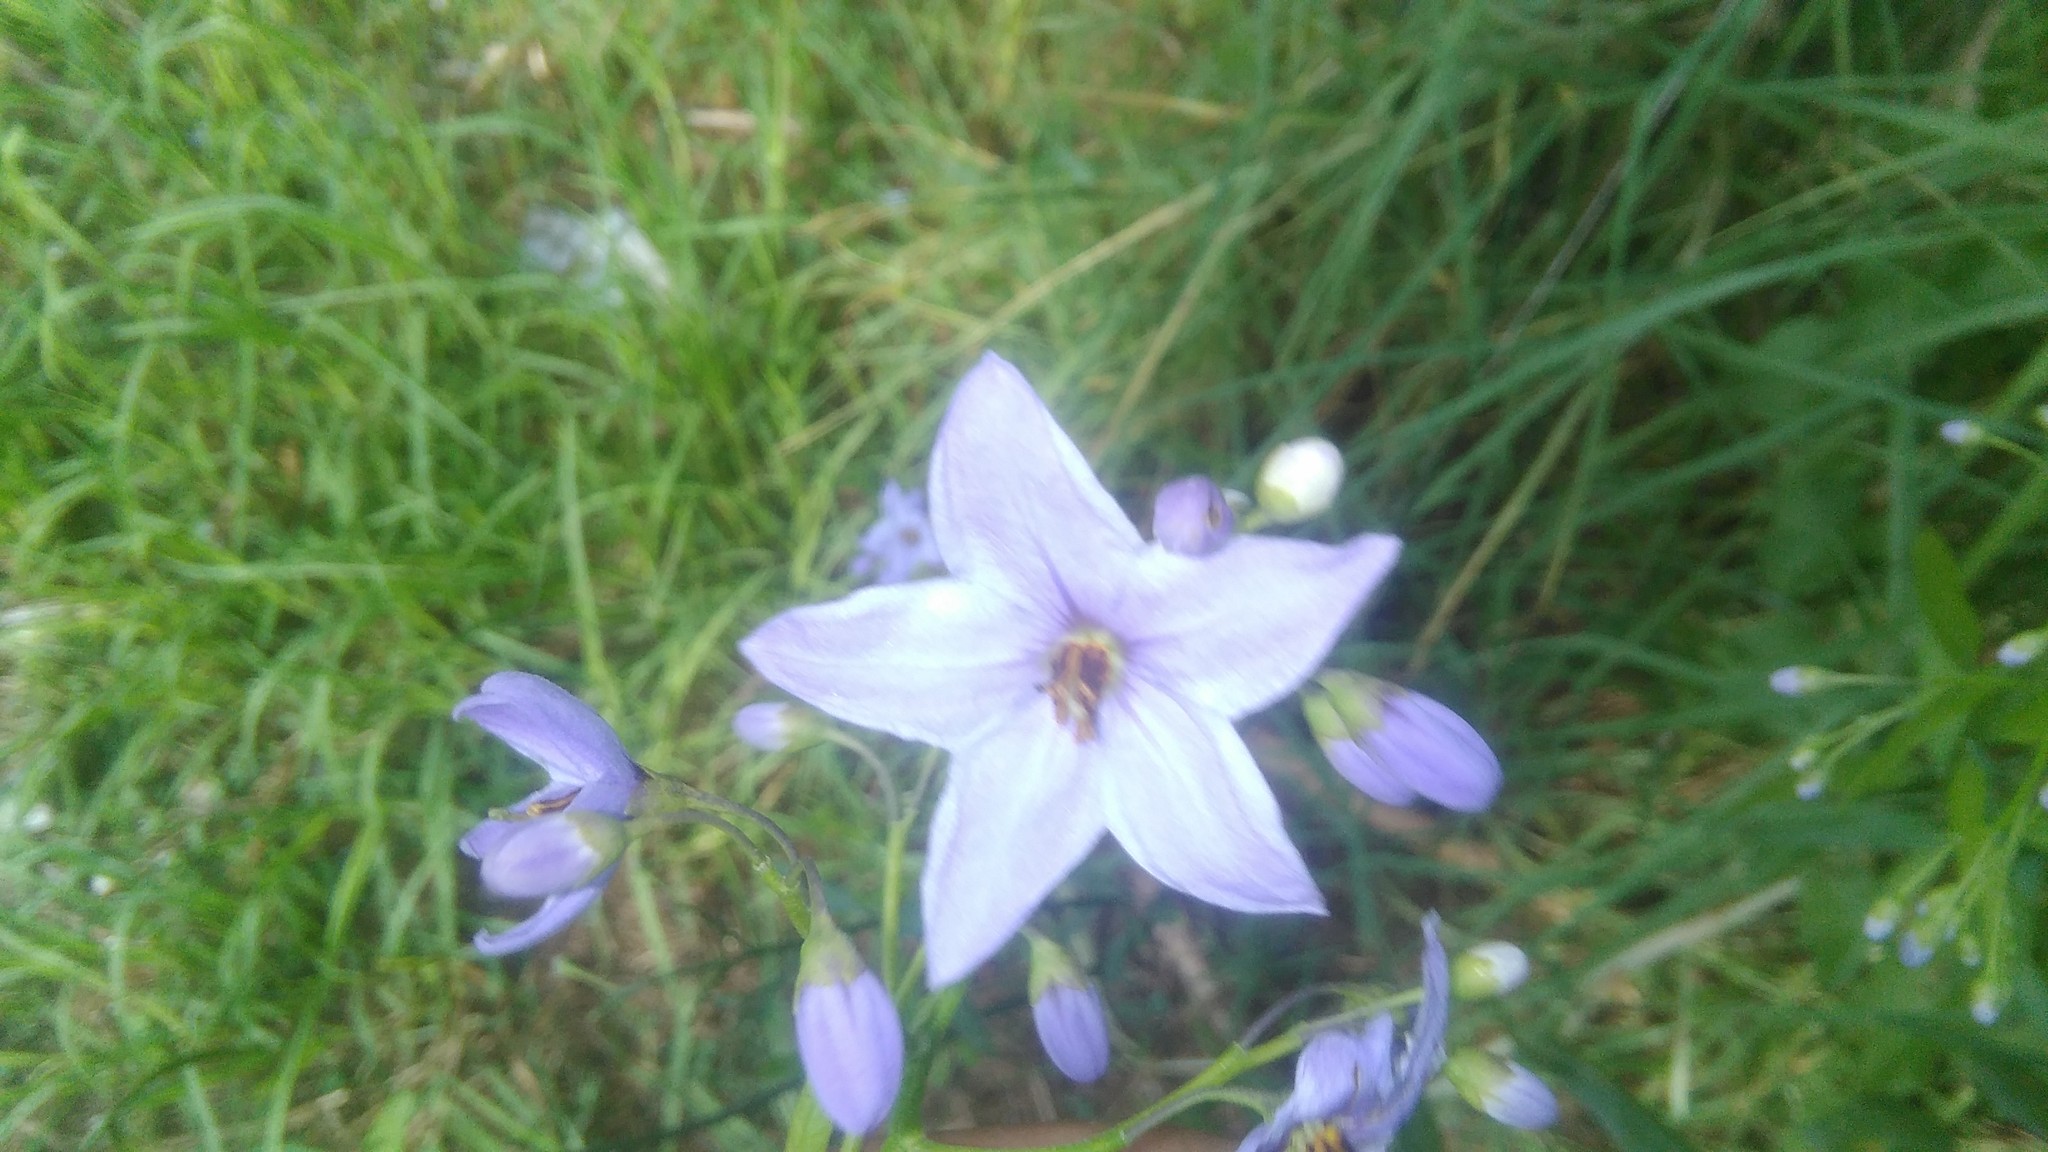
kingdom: Plantae
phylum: Tracheophyta
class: Magnoliopsida
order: Solanales
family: Solanaceae
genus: Solanum
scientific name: Solanum amygdalifolium
